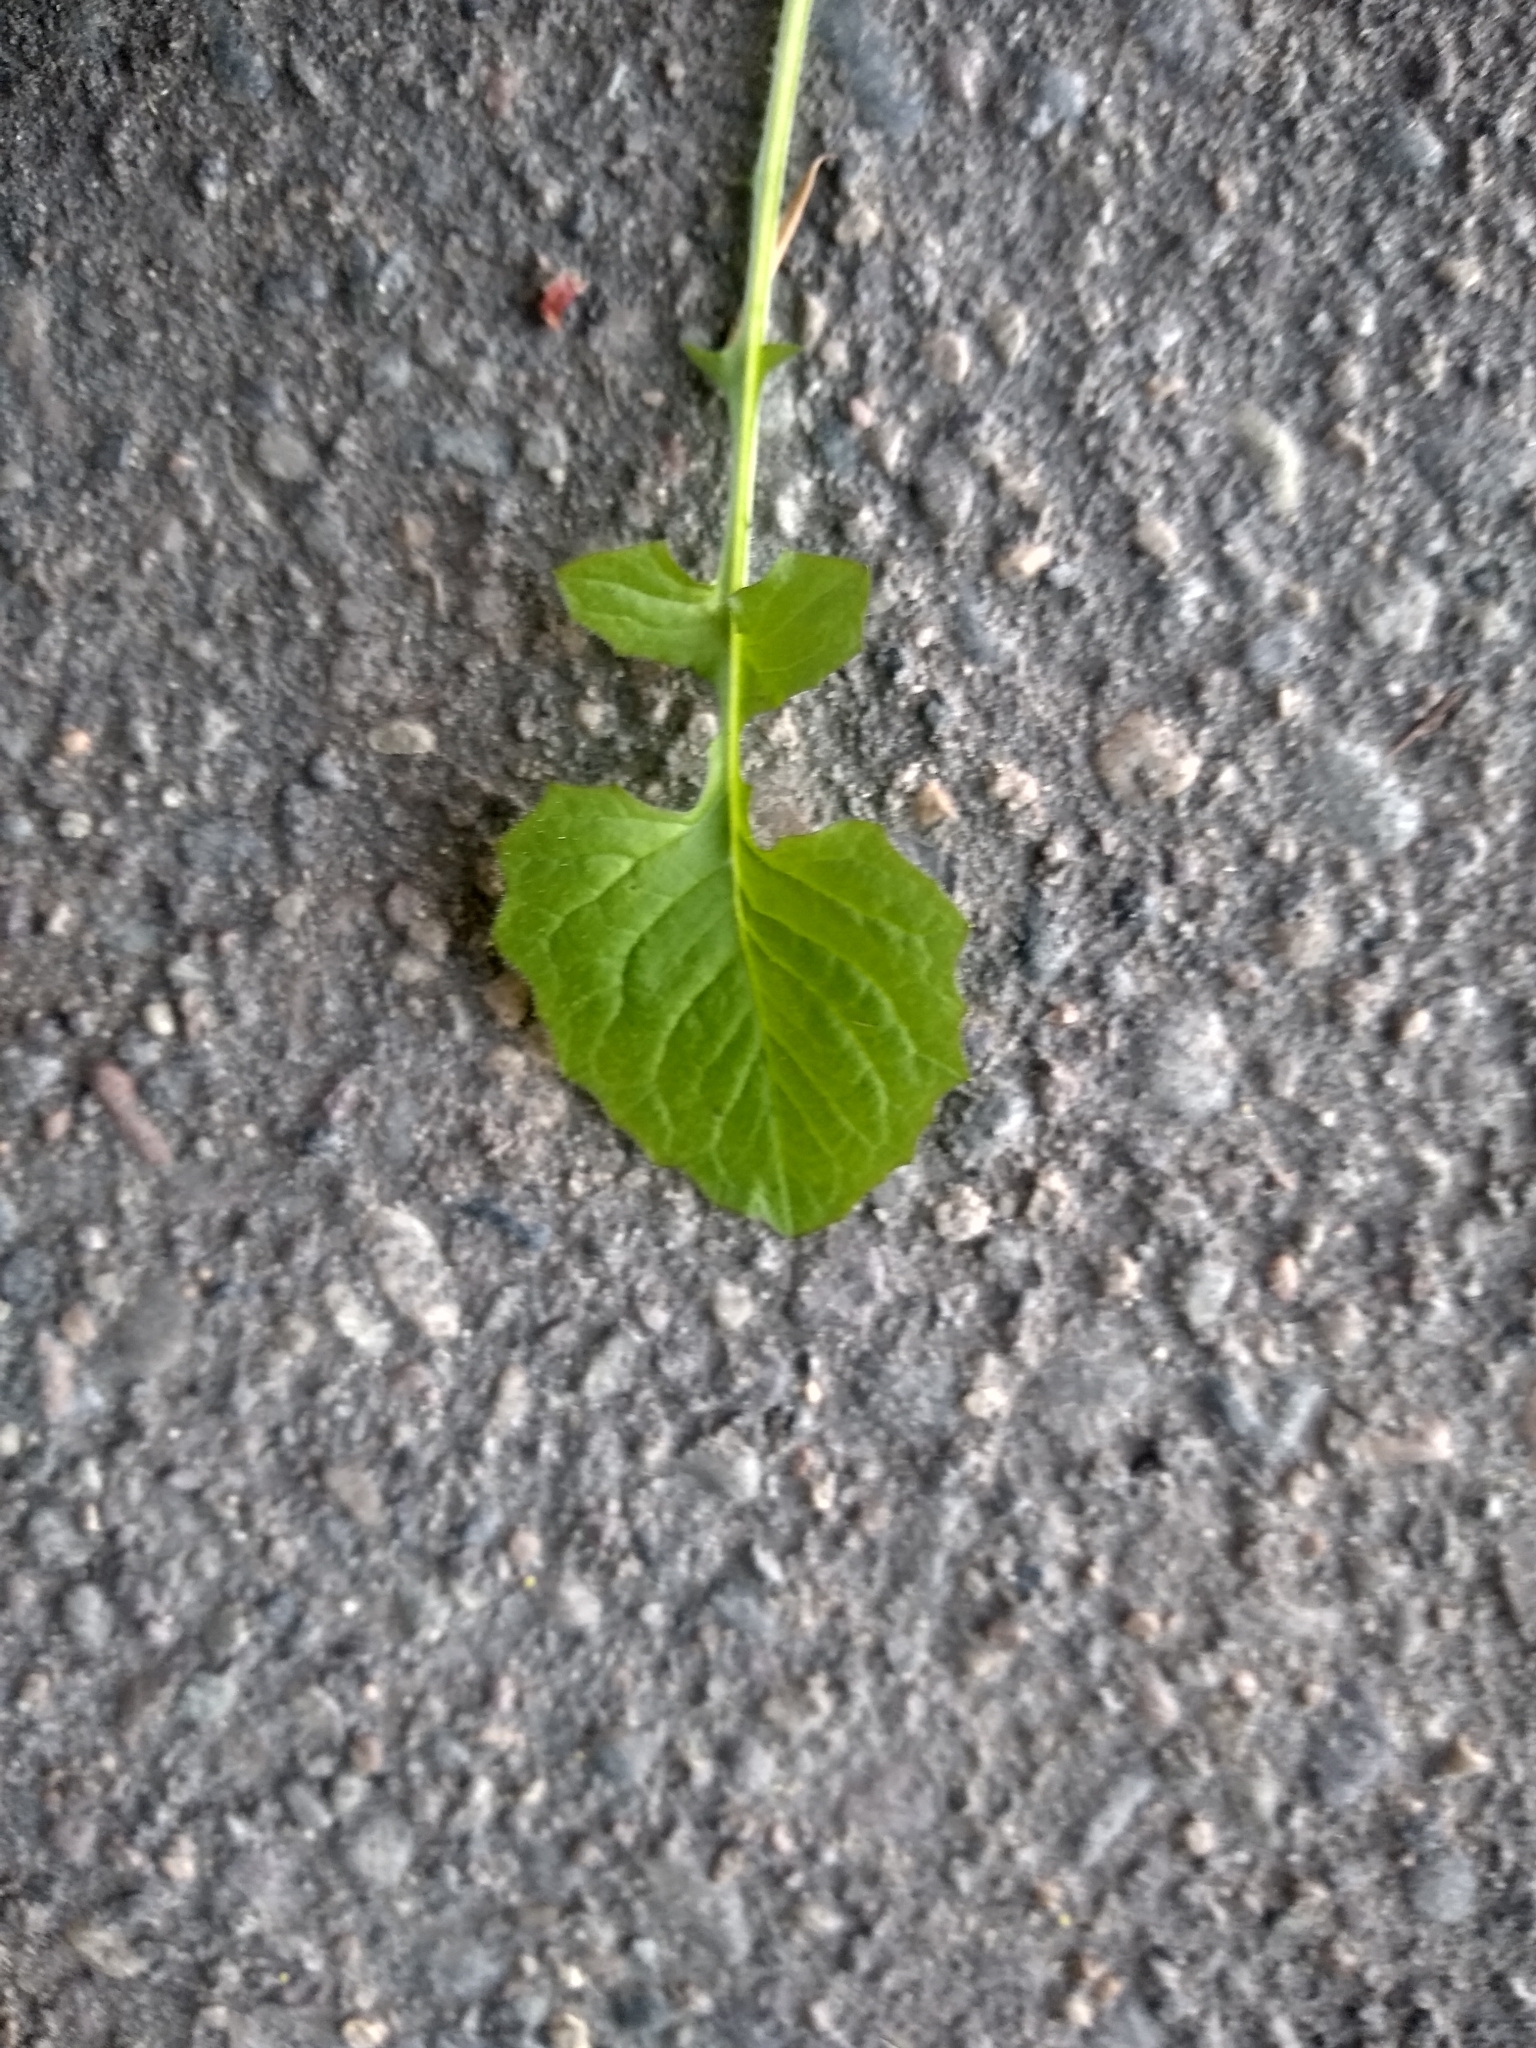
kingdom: Plantae
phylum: Tracheophyta
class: Magnoliopsida
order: Asterales
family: Asteraceae
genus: Lapsana
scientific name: Lapsana communis
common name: Nipplewort
